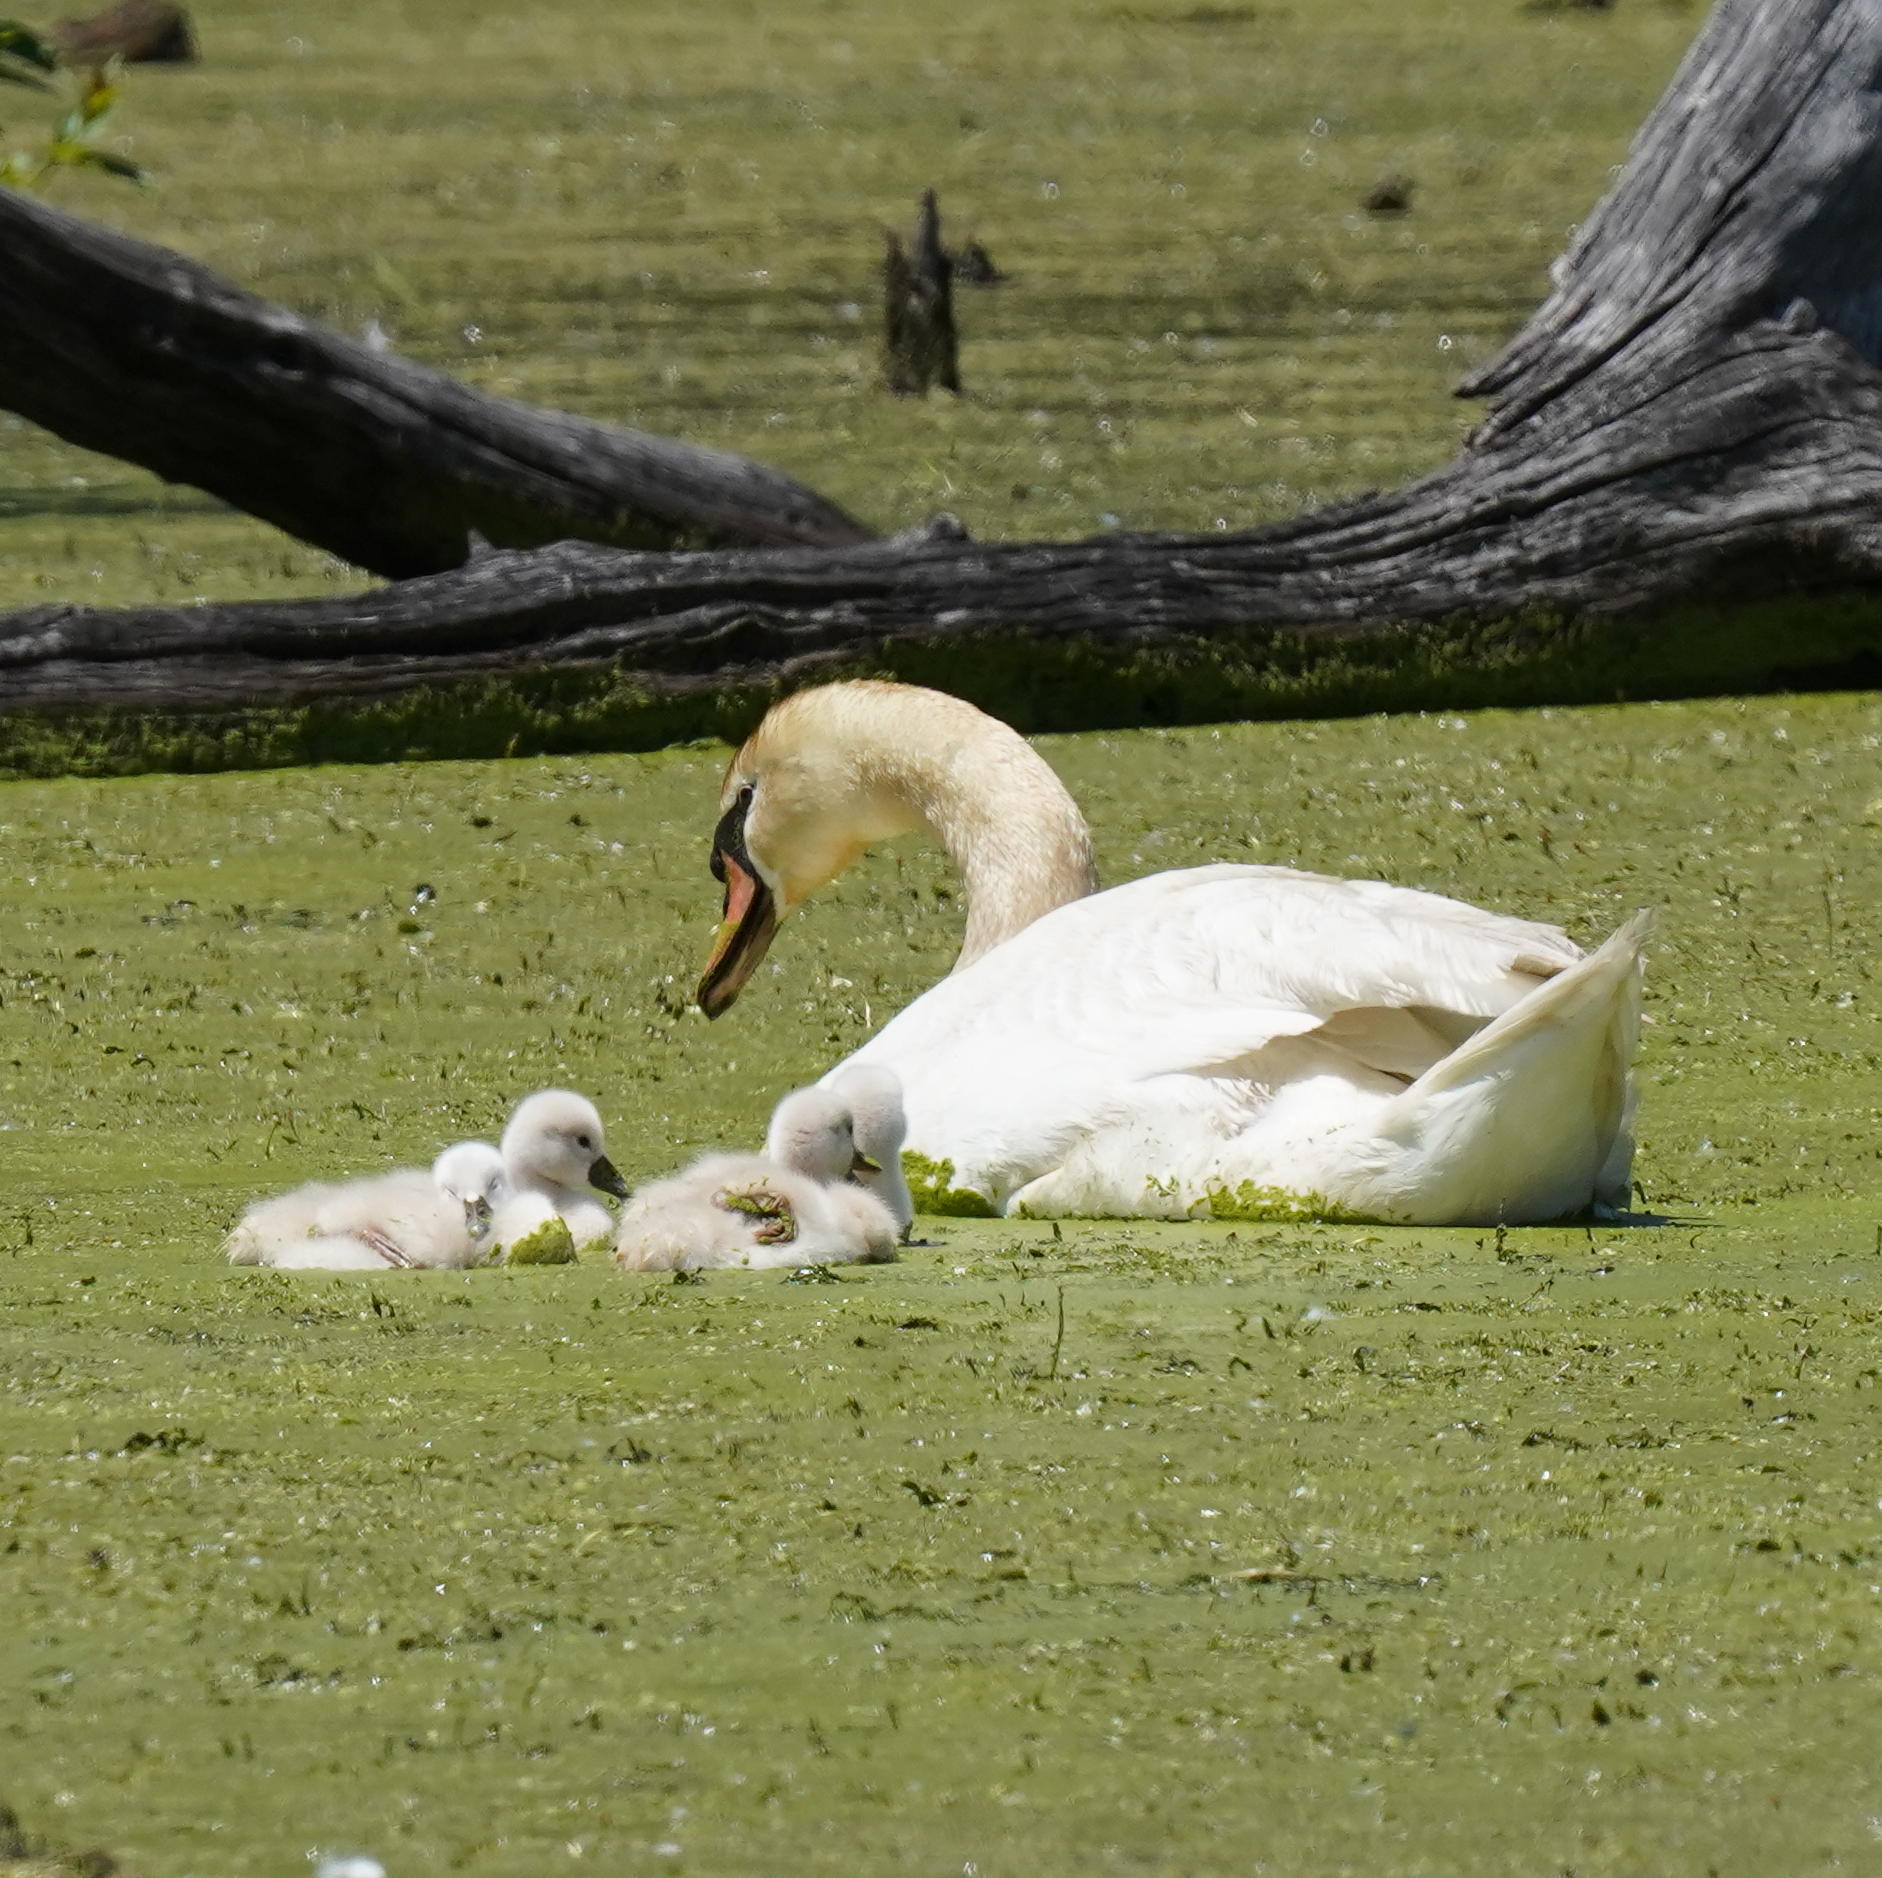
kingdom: Animalia
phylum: Chordata
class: Aves
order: Anseriformes
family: Anatidae
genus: Cygnus
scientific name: Cygnus olor
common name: Mute swan
